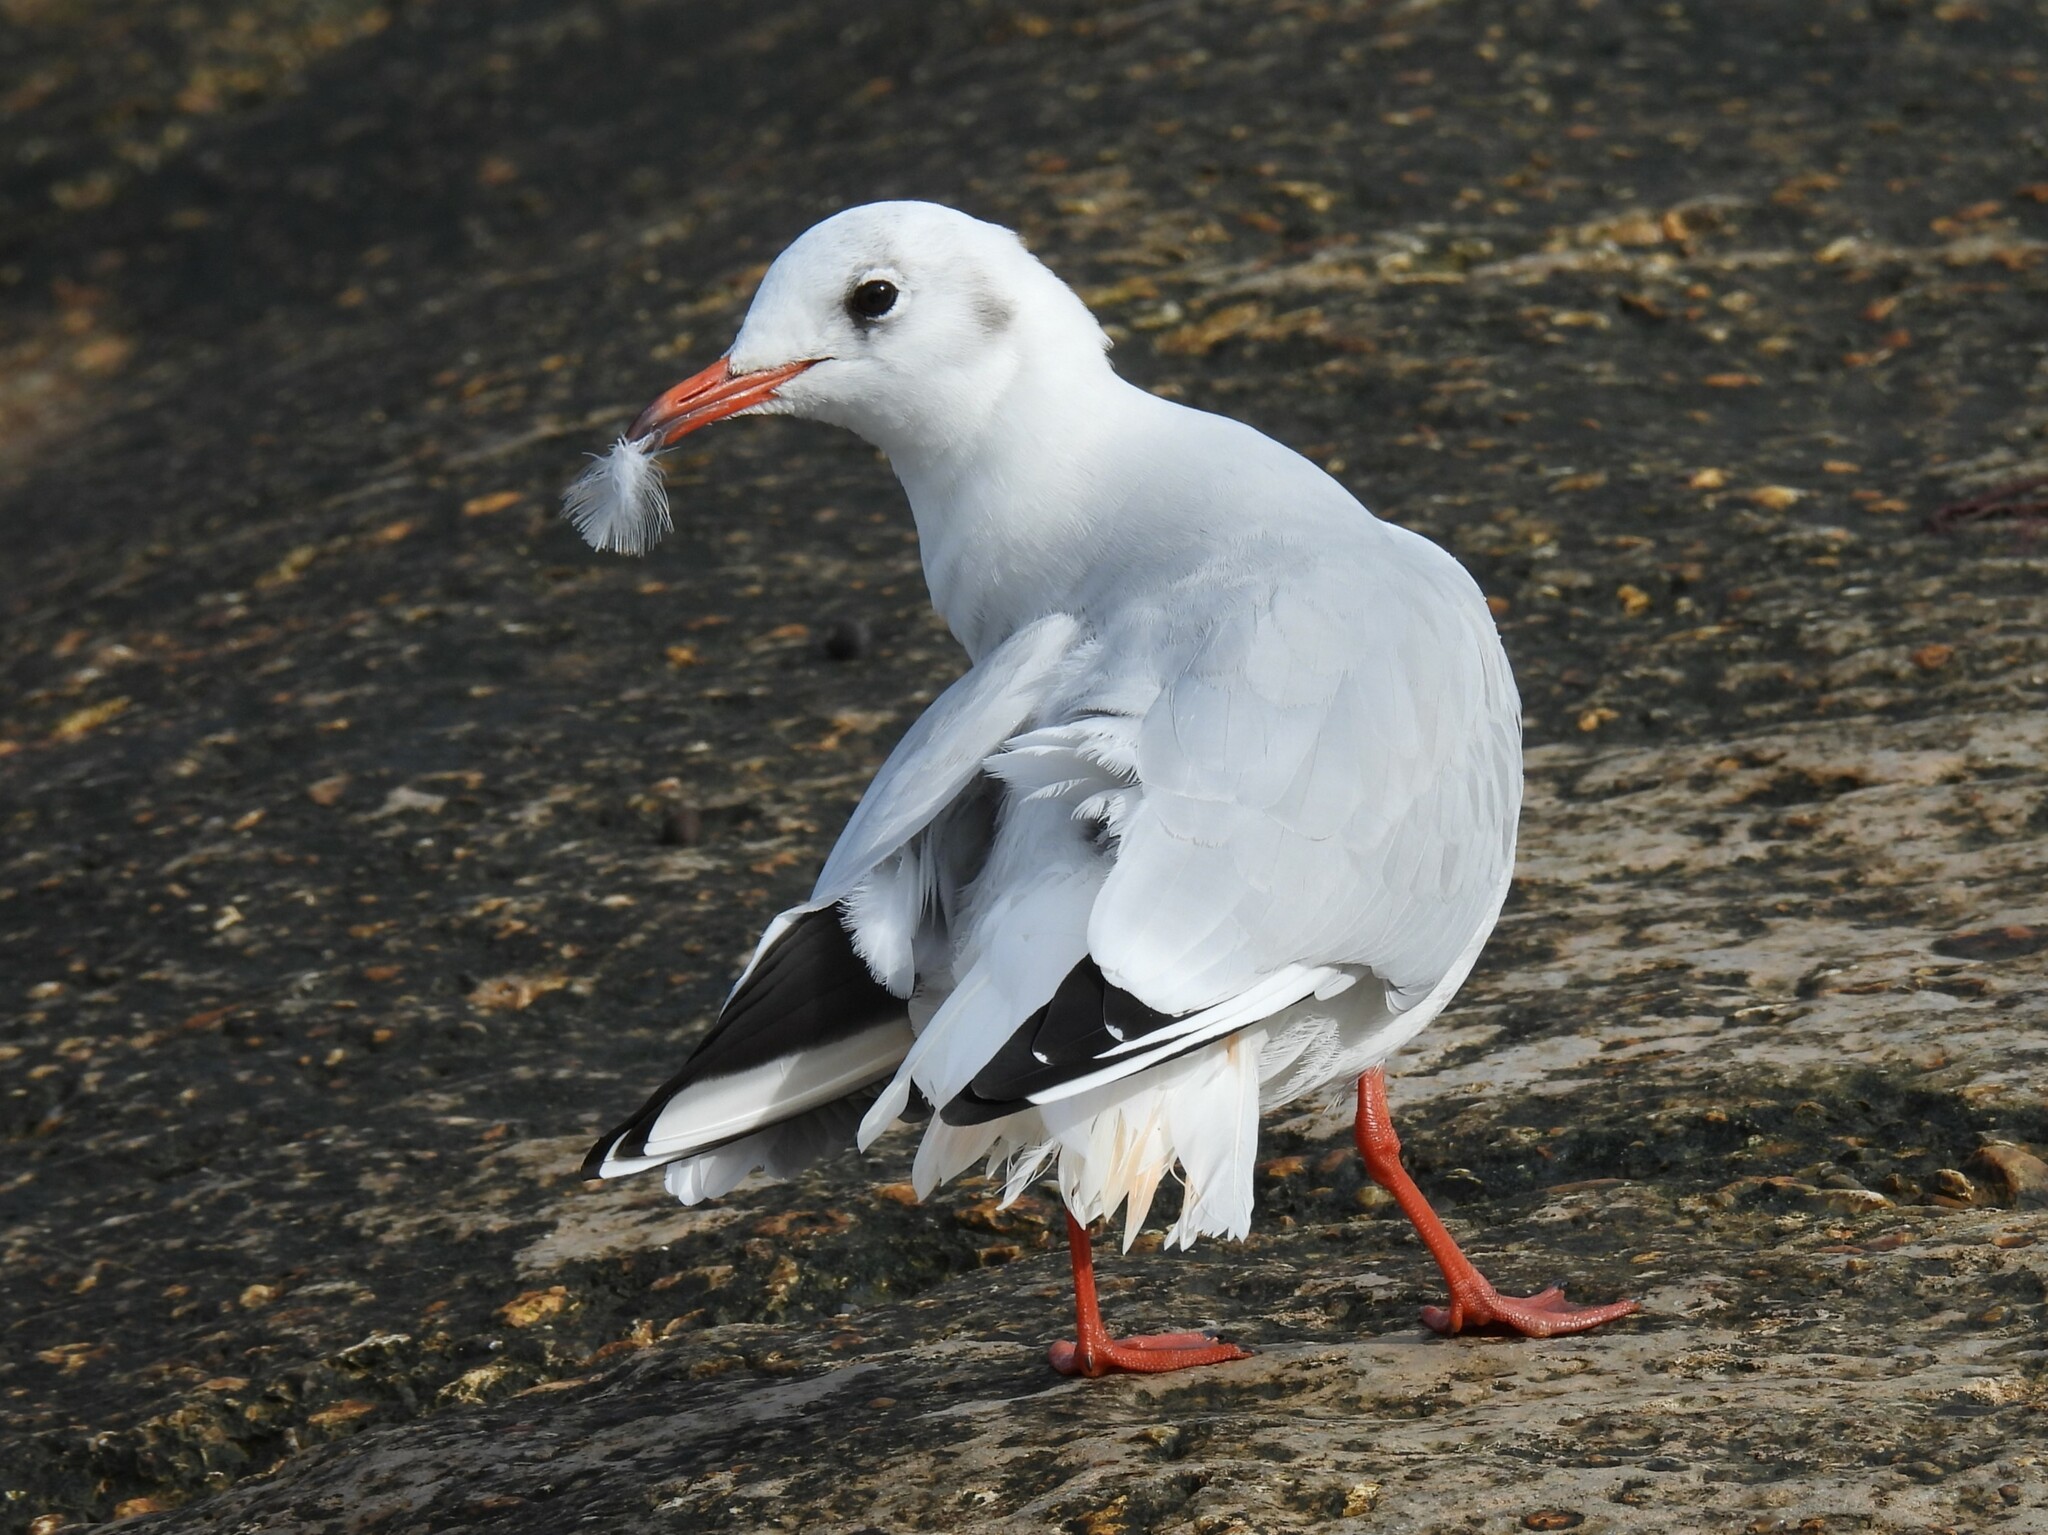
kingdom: Animalia
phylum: Chordata
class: Aves
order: Charadriiformes
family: Laridae
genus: Chroicocephalus
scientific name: Chroicocephalus ridibundus
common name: Black-headed gull
